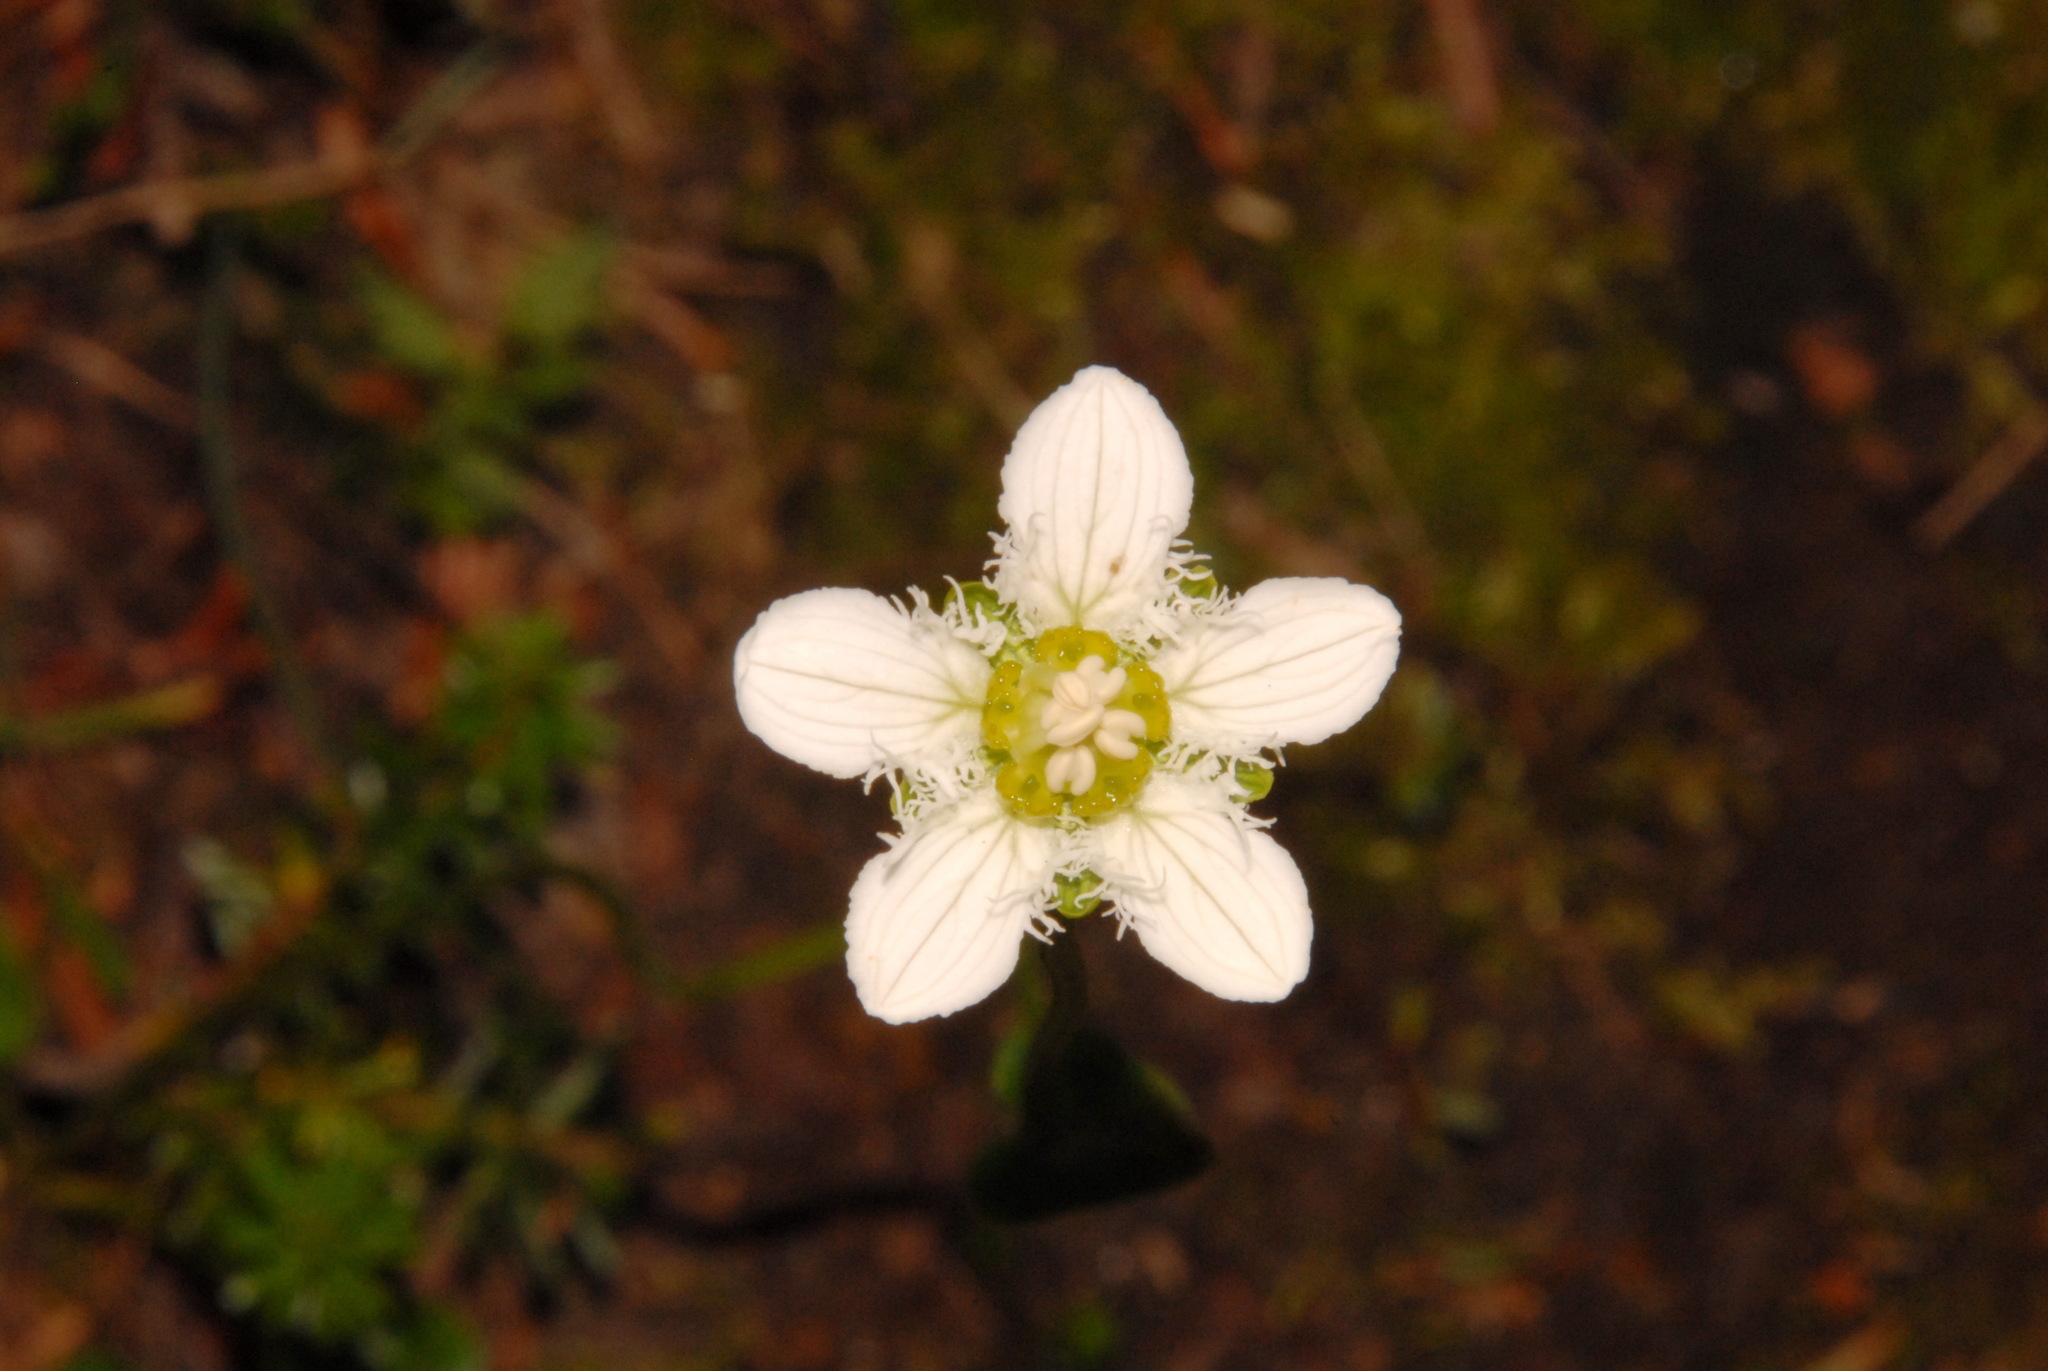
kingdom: Plantae
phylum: Tracheophyta
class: Magnoliopsida
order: Celastrales
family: Parnassiaceae
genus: Parnassia
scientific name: Parnassia fimbriata
